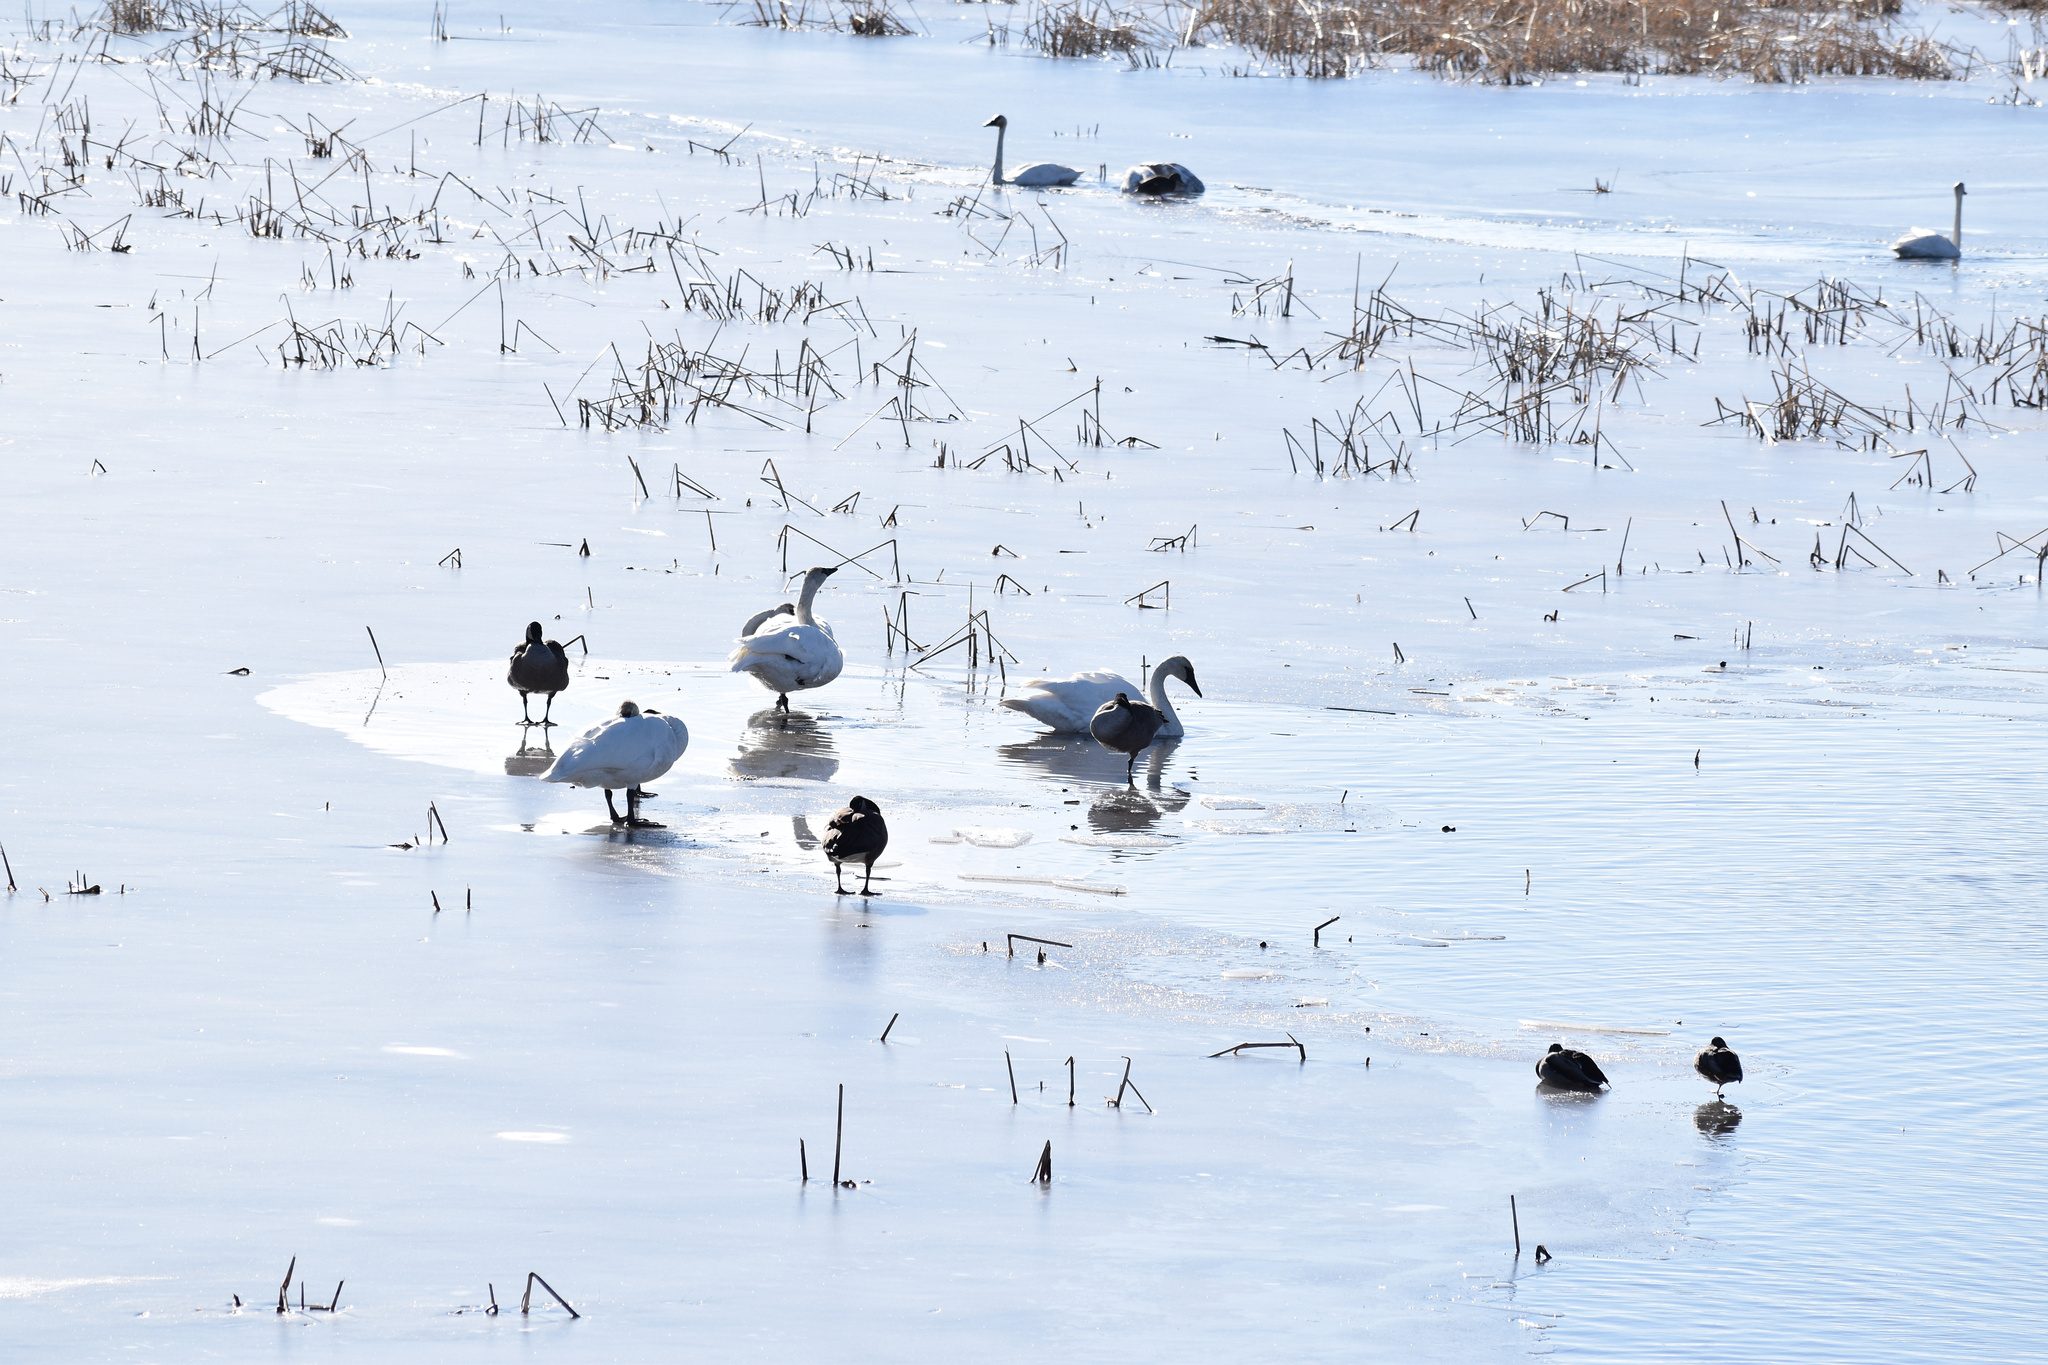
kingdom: Animalia
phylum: Chordata
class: Aves
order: Anseriformes
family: Anatidae
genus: Cygnus
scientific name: Cygnus buccinator
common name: Trumpeter swan
